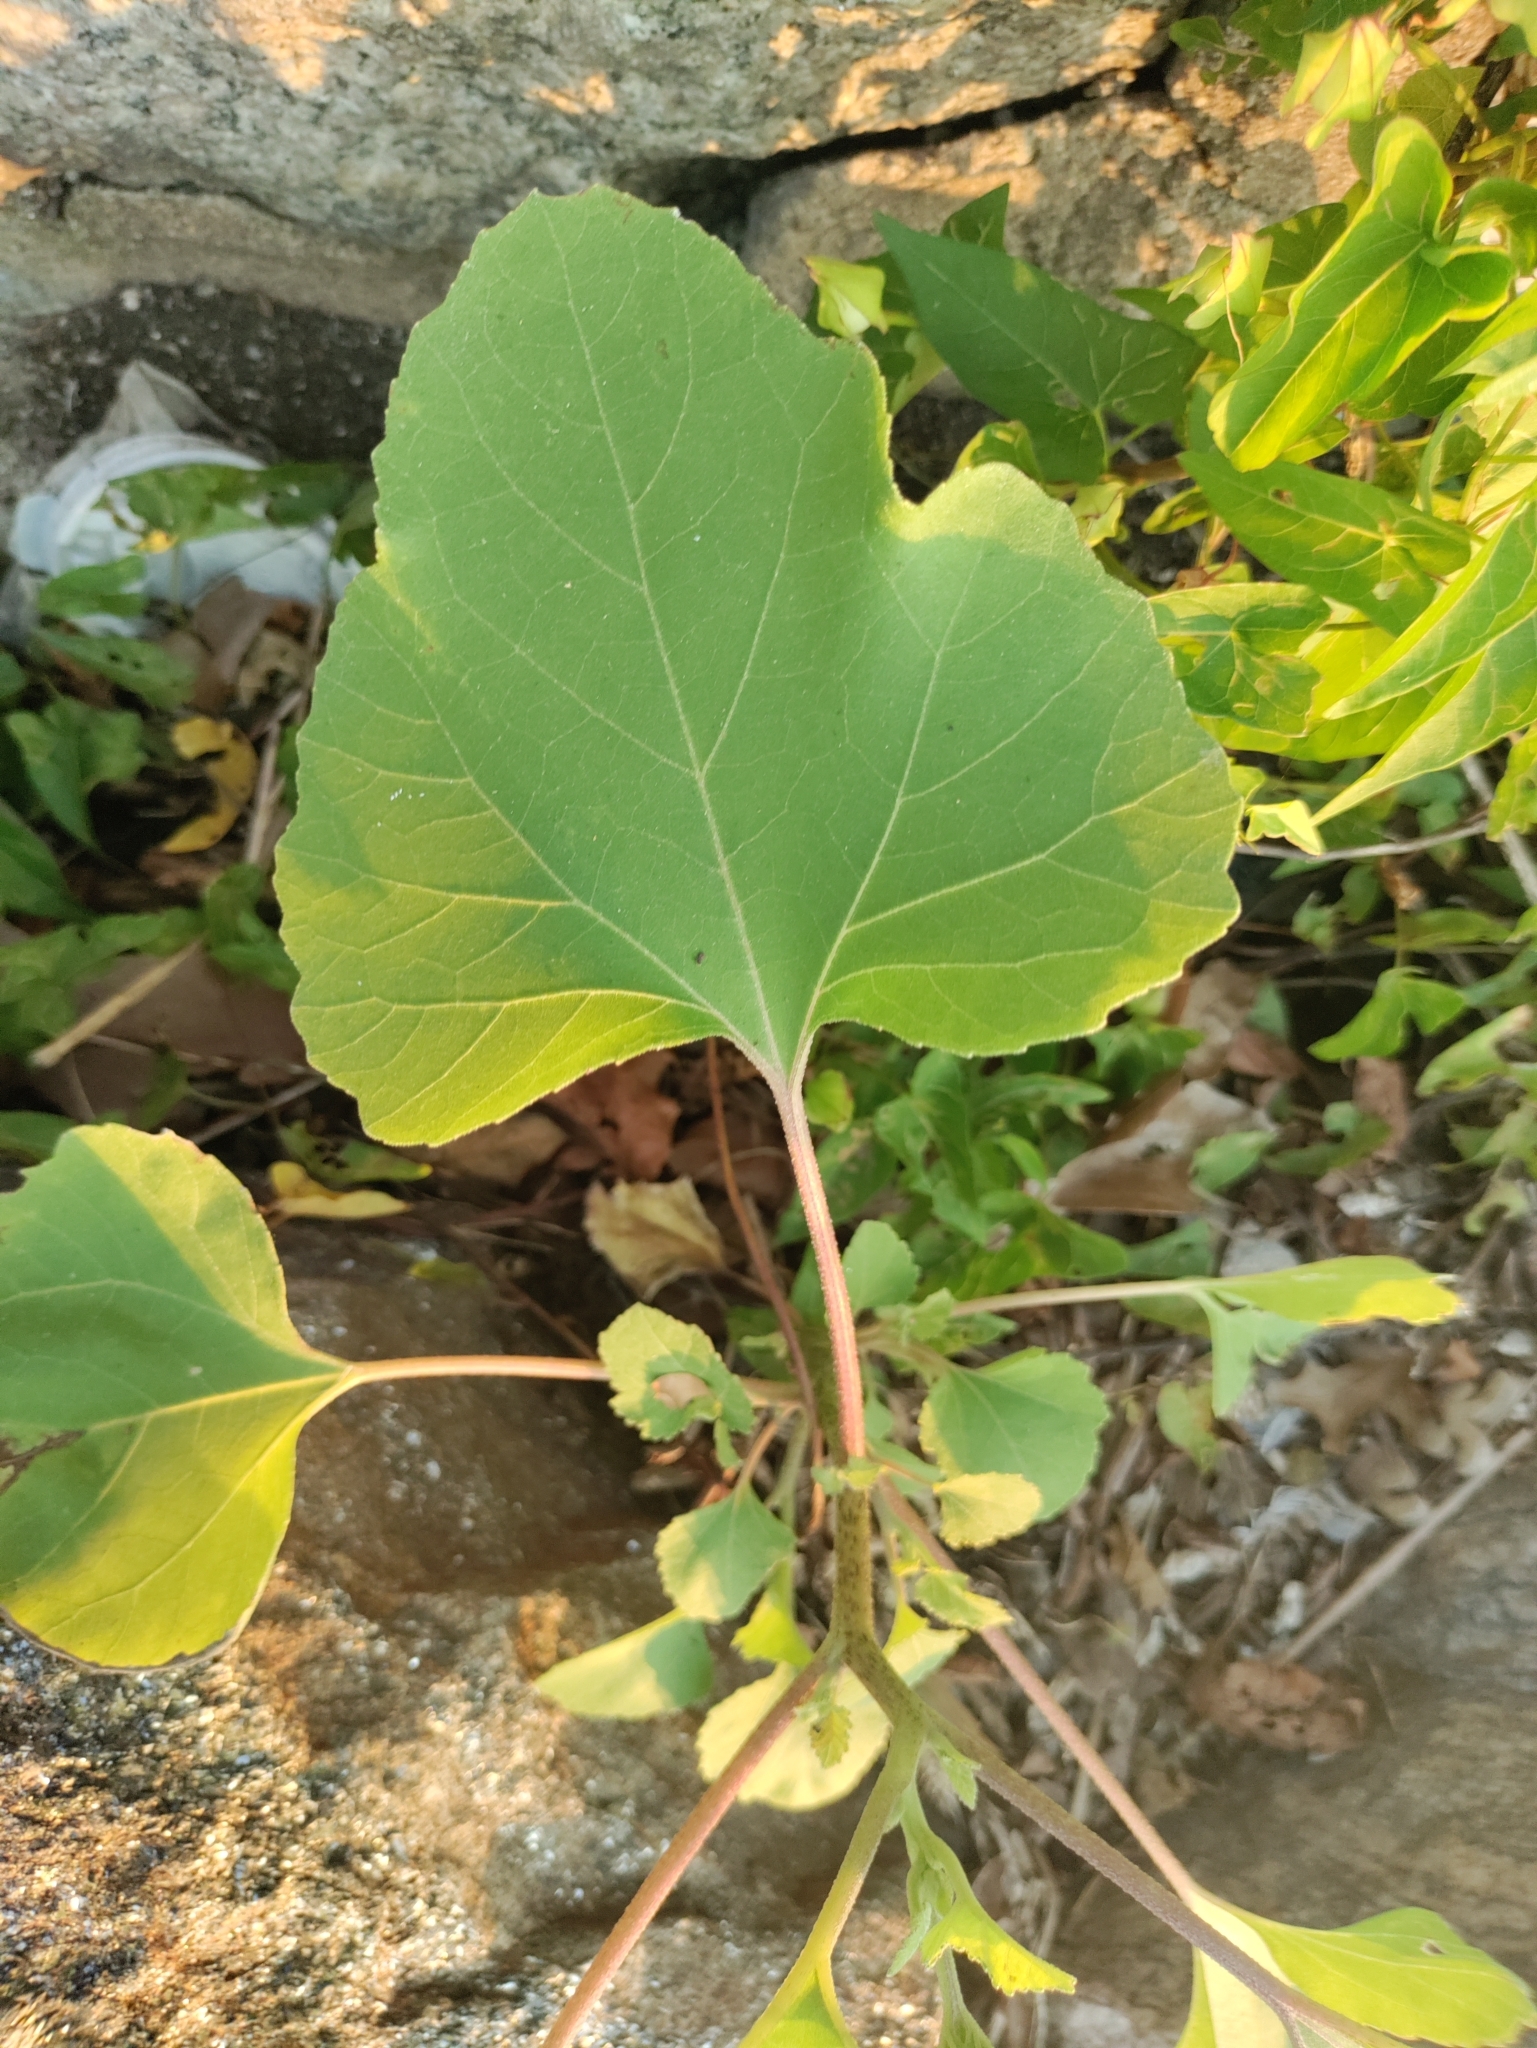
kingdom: Plantae
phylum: Tracheophyta
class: Magnoliopsida
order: Asterales
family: Asteraceae
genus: Xanthium
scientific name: Xanthium strumarium
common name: Rough cocklebur
